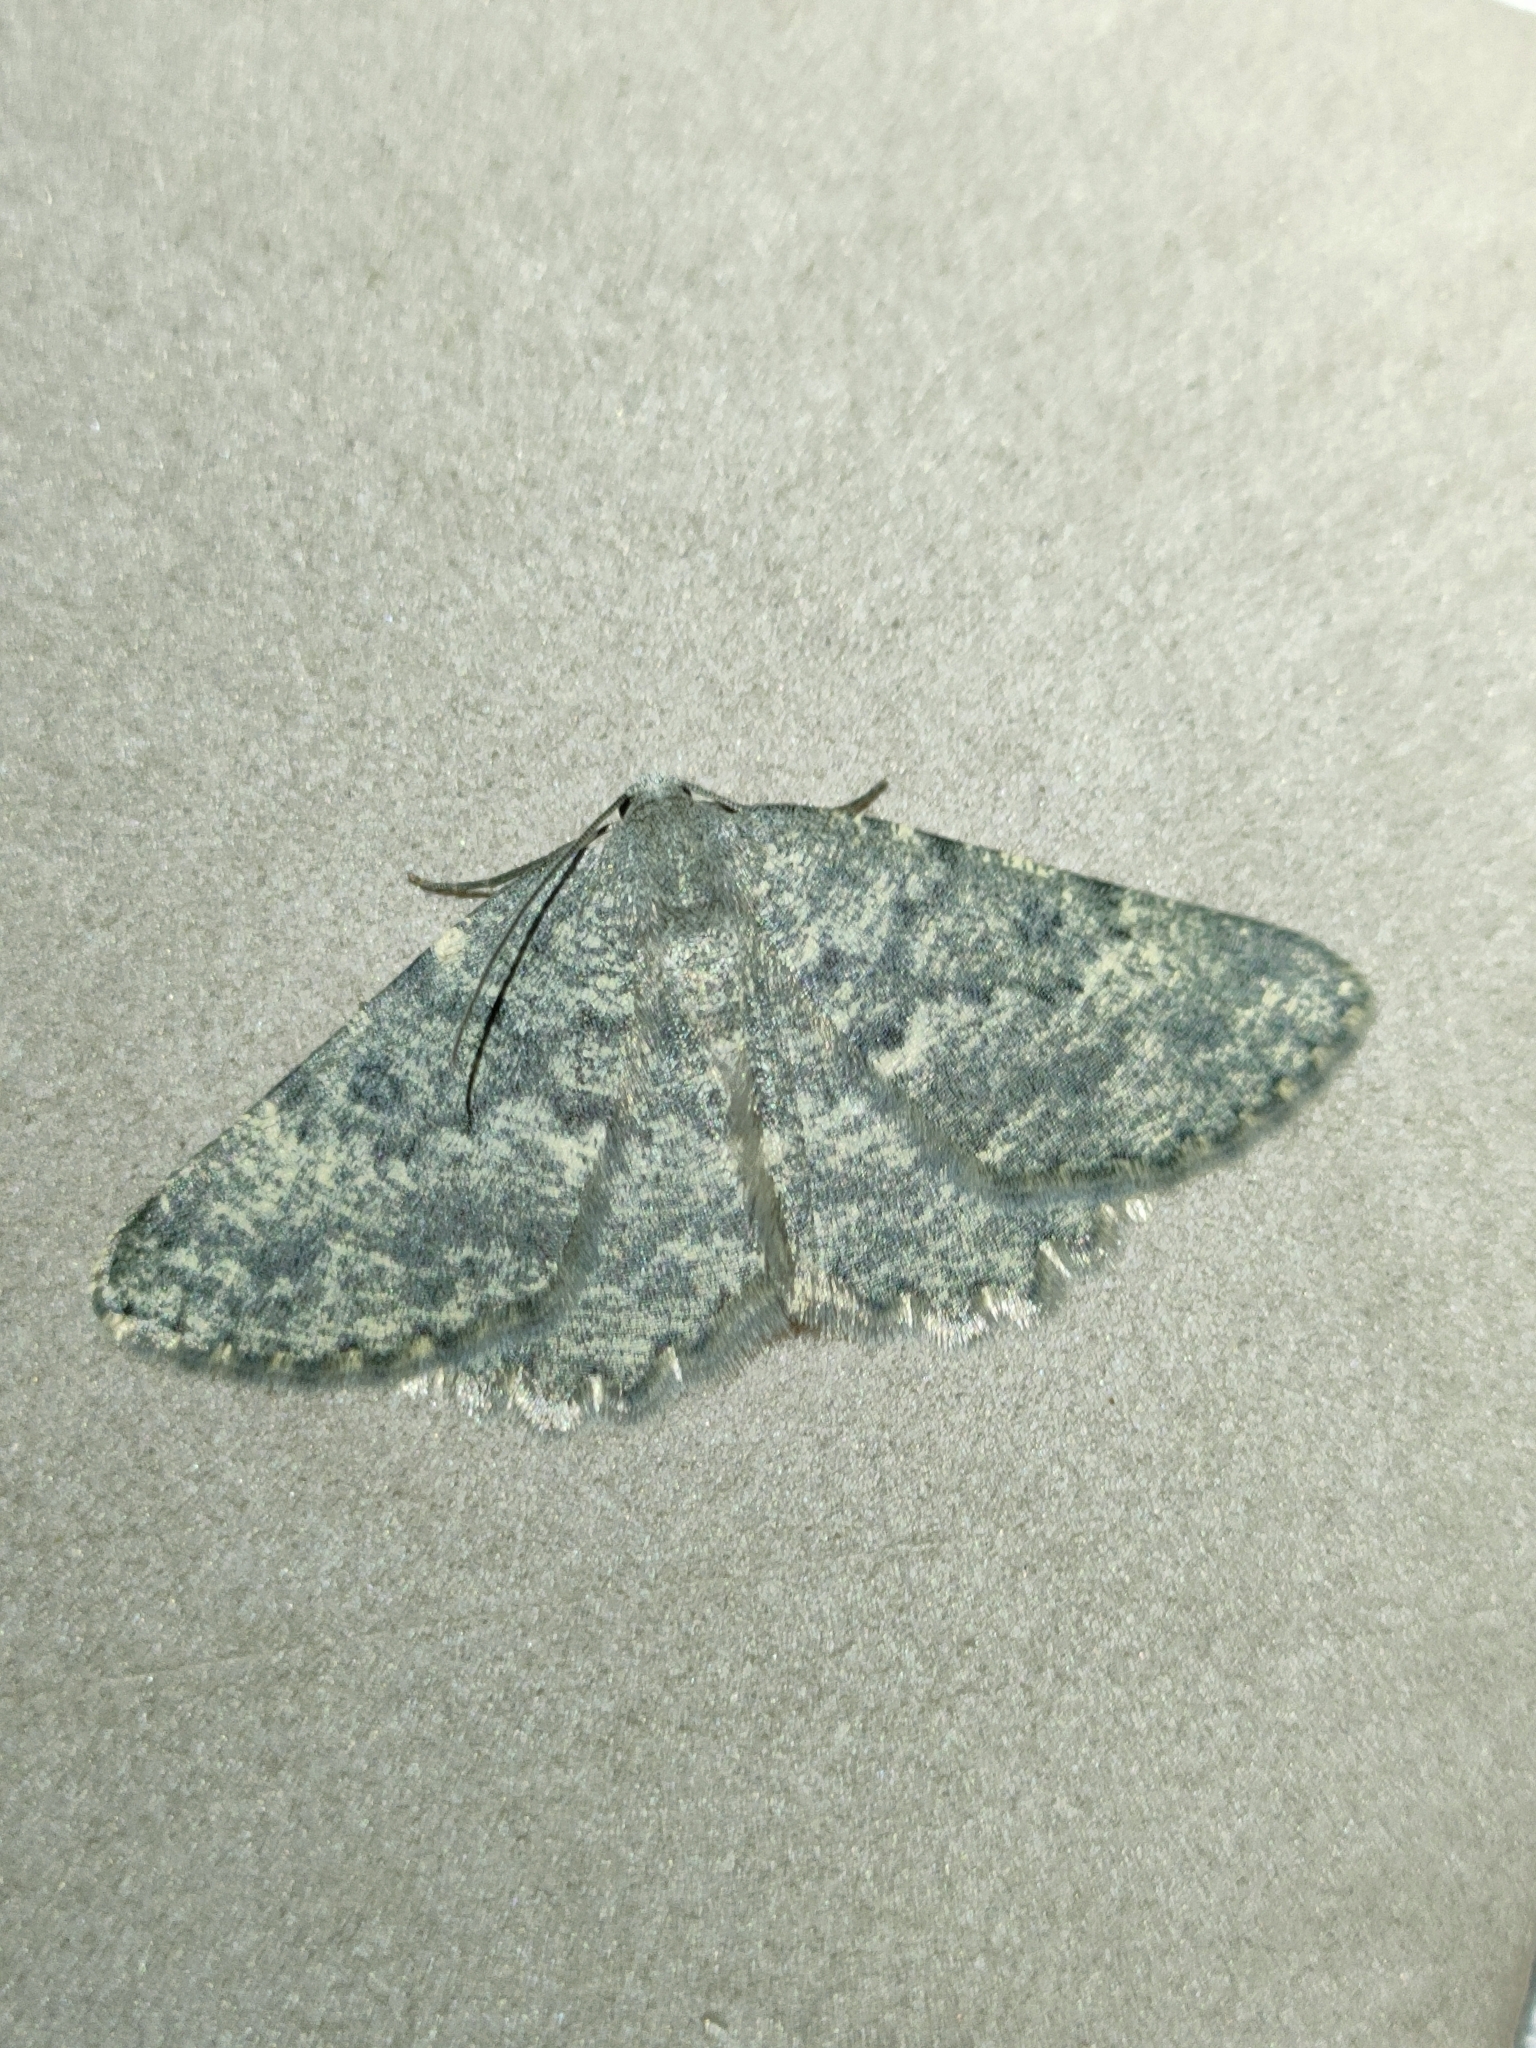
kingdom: Animalia
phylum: Arthropoda
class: Insecta
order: Lepidoptera
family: Geometridae
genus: Charissa
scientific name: Charissa mucidaria
